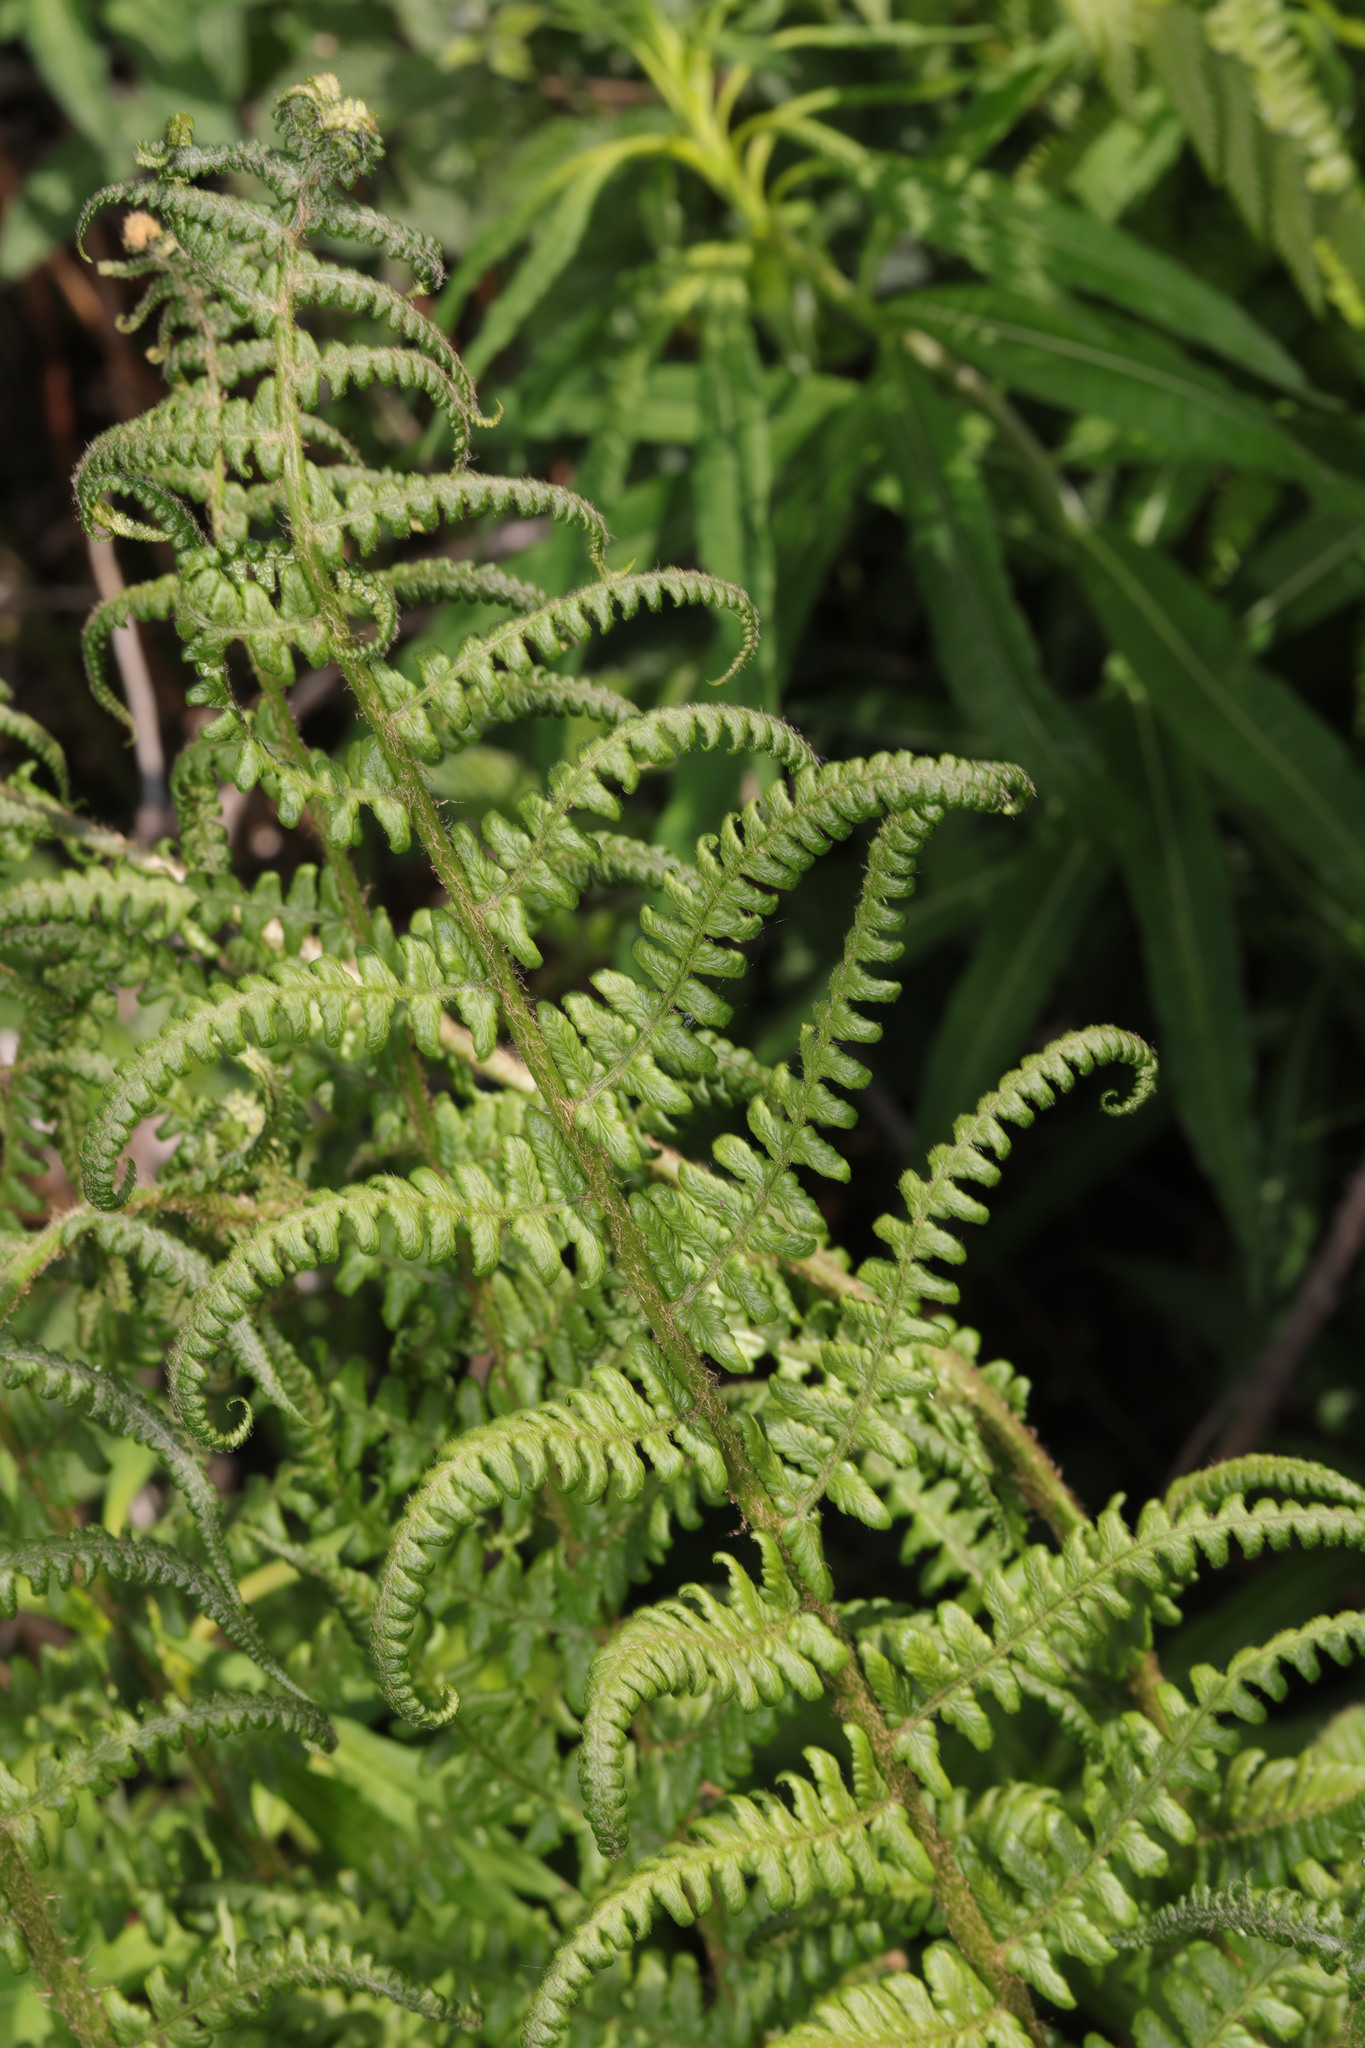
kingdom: Plantae
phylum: Tracheophyta
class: Polypodiopsida
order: Polypodiales
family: Dryopteridaceae
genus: Dryopteris
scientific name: Dryopteris filix-mas
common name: Male fern
